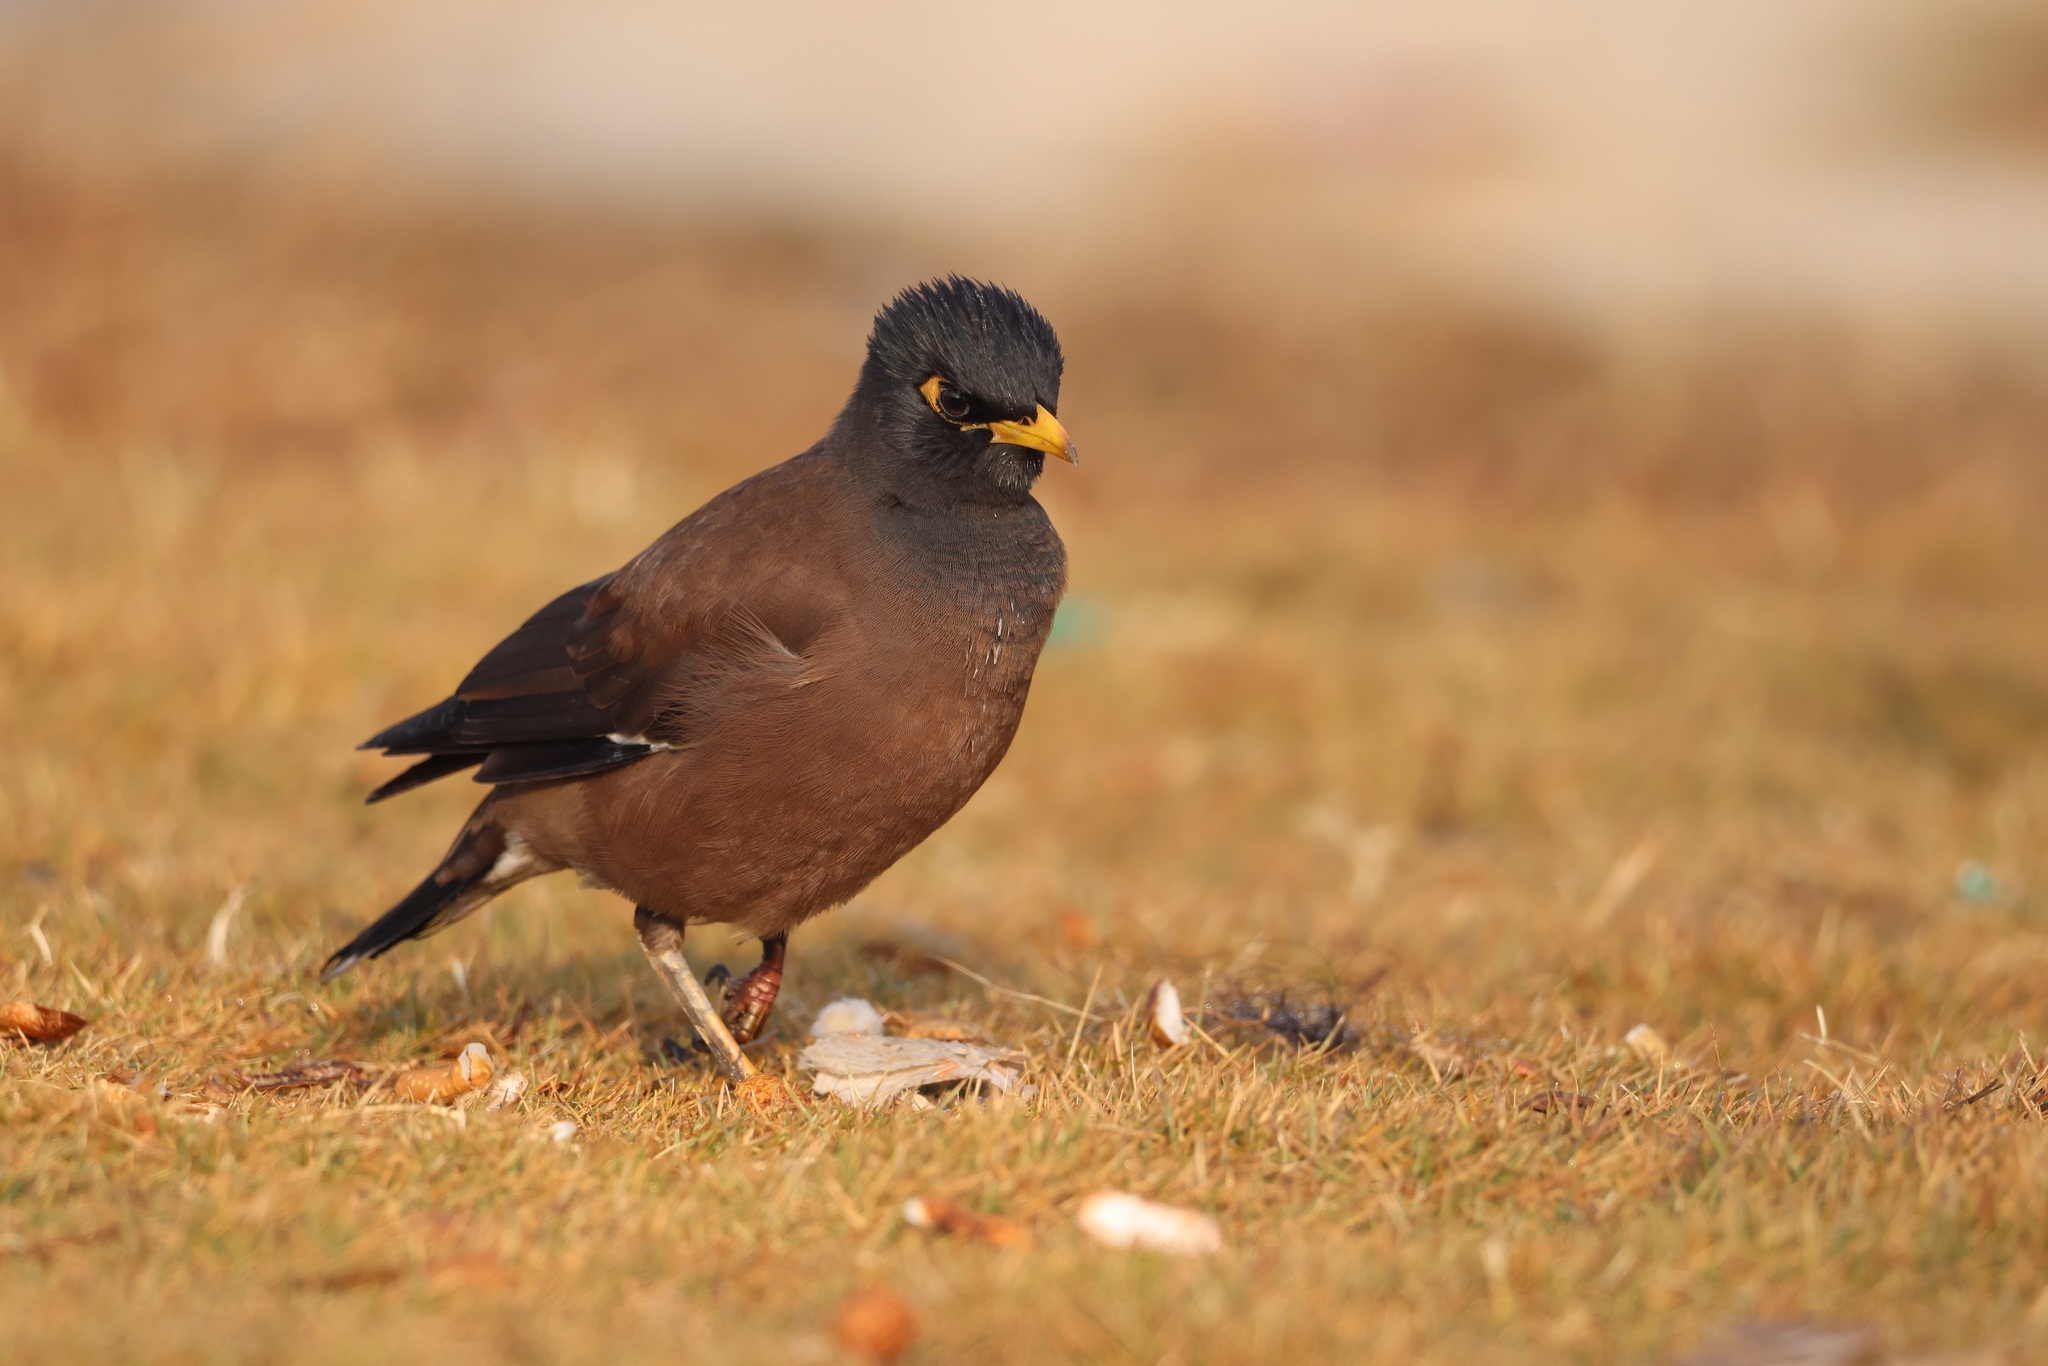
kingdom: Animalia
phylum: Chordata
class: Aves
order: Passeriformes
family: Sturnidae
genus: Acridotheres
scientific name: Acridotheres tristis
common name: Common myna
